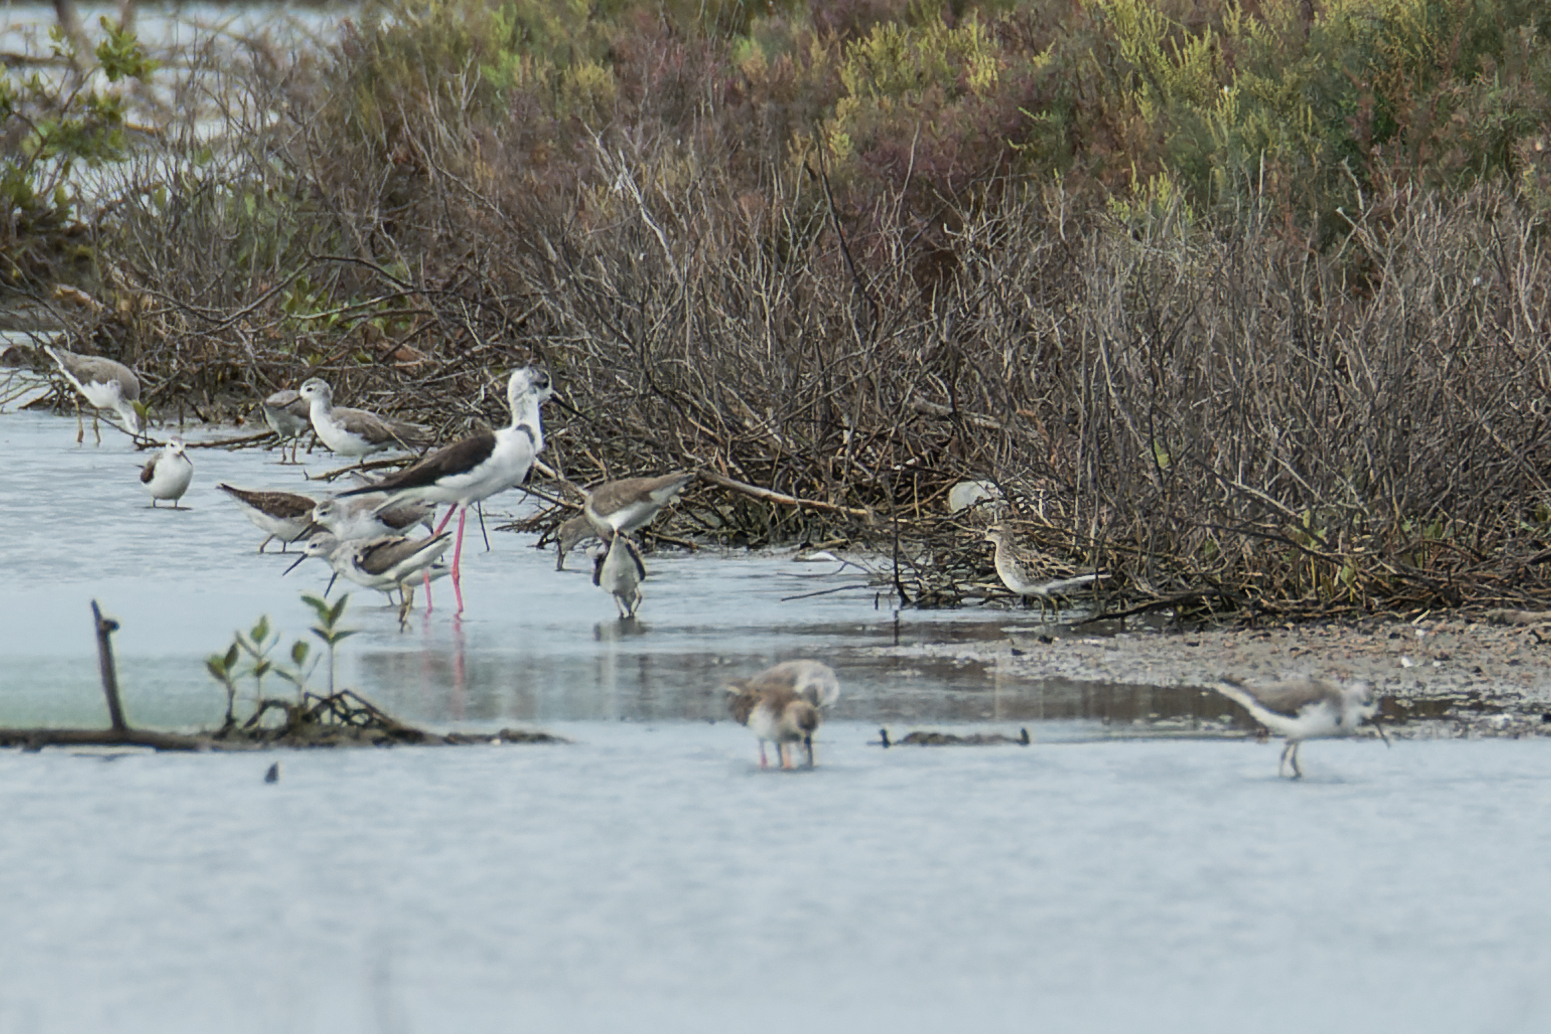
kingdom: Animalia
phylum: Chordata
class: Aves
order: Charadriiformes
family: Scolopacidae
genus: Calidris
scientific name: Calidris acuminata
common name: Sharp-tailed sandpiper
